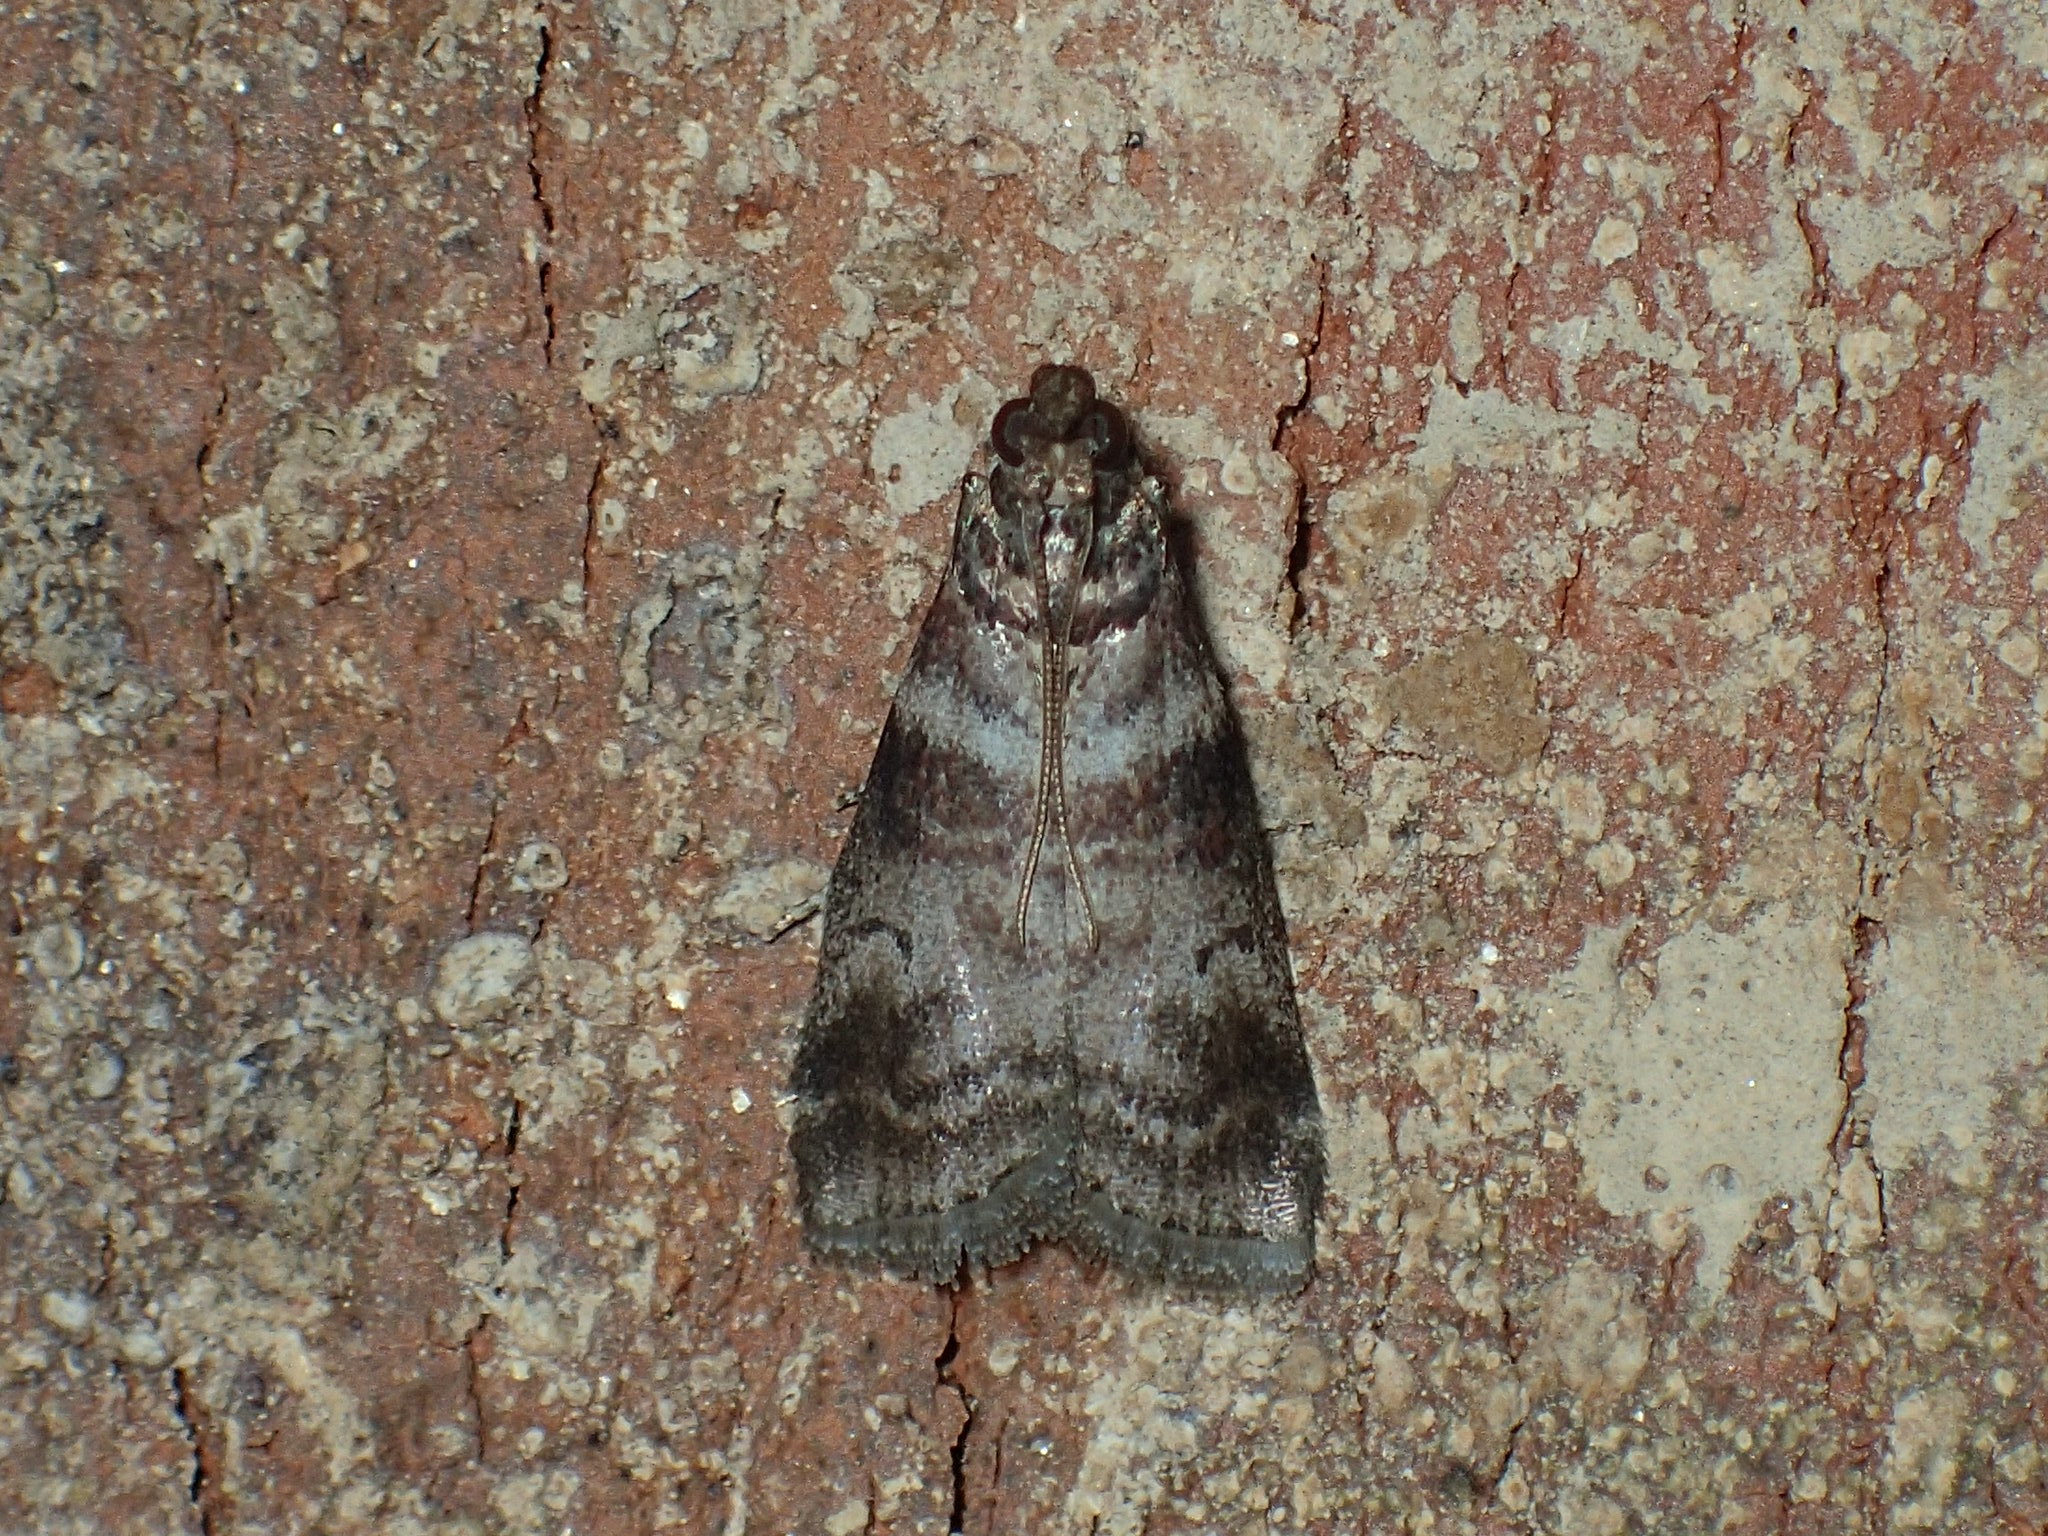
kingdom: Animalia
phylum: Arthropoda
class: Insecta
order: Lepidoptera
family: Pyralidae
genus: Sciota
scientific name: Sciota uvinella
